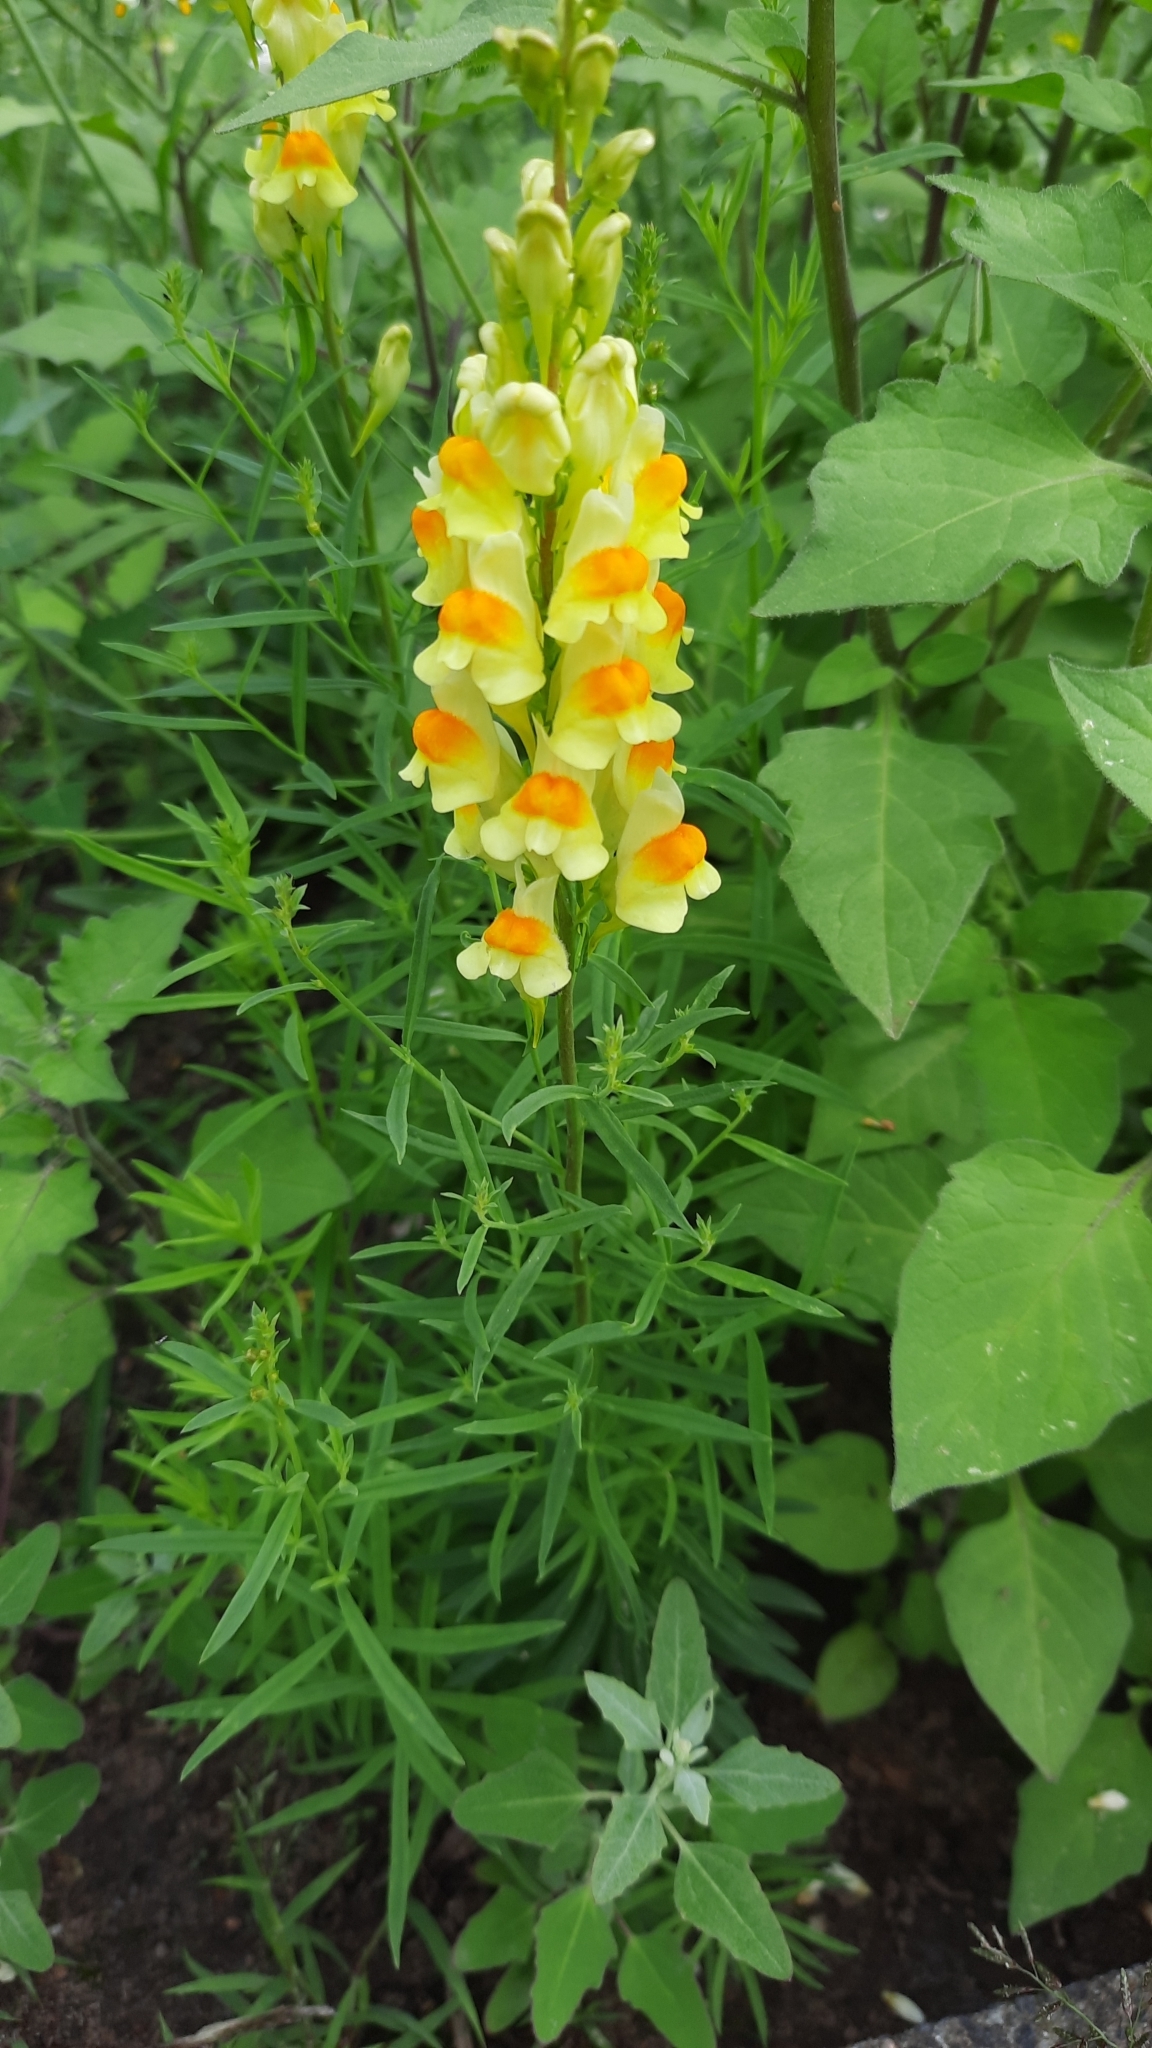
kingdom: Plantae
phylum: Tracheophyta
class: Magnoliopsida
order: Lamiales
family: Plantaginaceae
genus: Linaria
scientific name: Linaria vulgaris
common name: Butter and eggs
